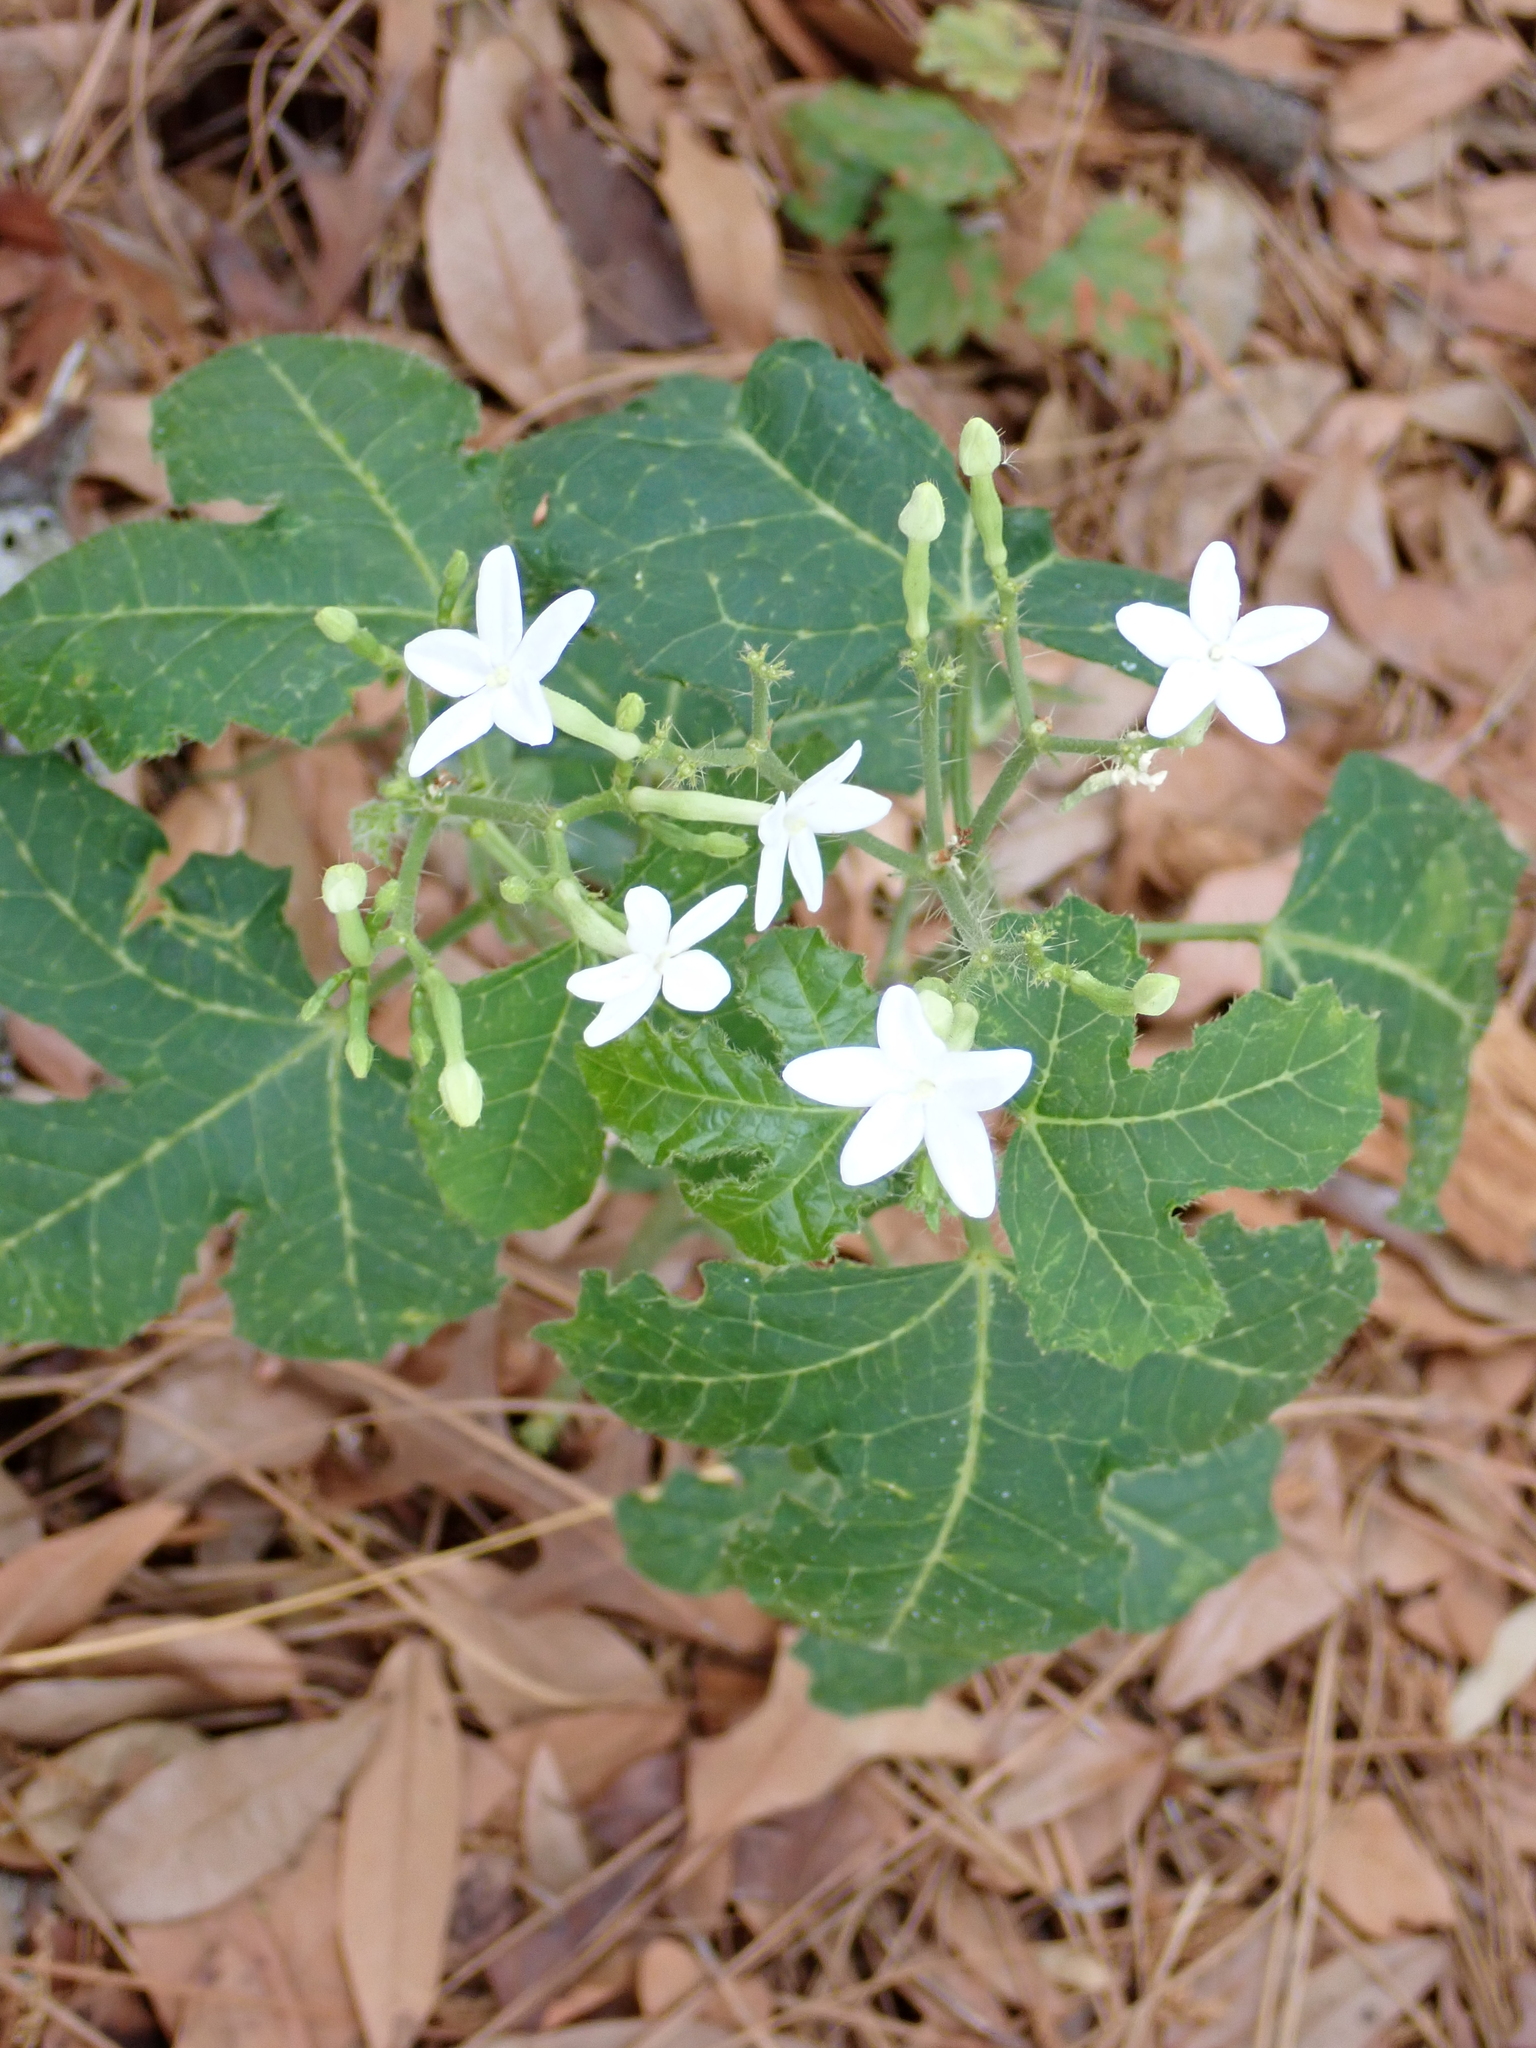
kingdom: Plantae
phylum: Tracheophyta
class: Magnoliopsida
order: Malpighiales
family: Euphorbiaceae
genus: Cnidoscolus
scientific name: Cnidoscolus stimulosus
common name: Bull-nettle
